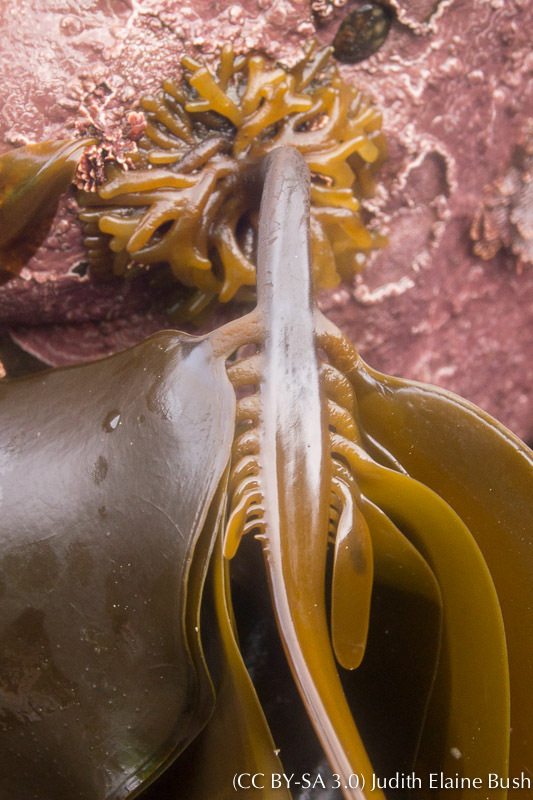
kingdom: Chromista
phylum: Ochrophyta
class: Phaeophyceae
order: Laminariales
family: Alariaceae
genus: Alaria
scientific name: Alaria marginata
